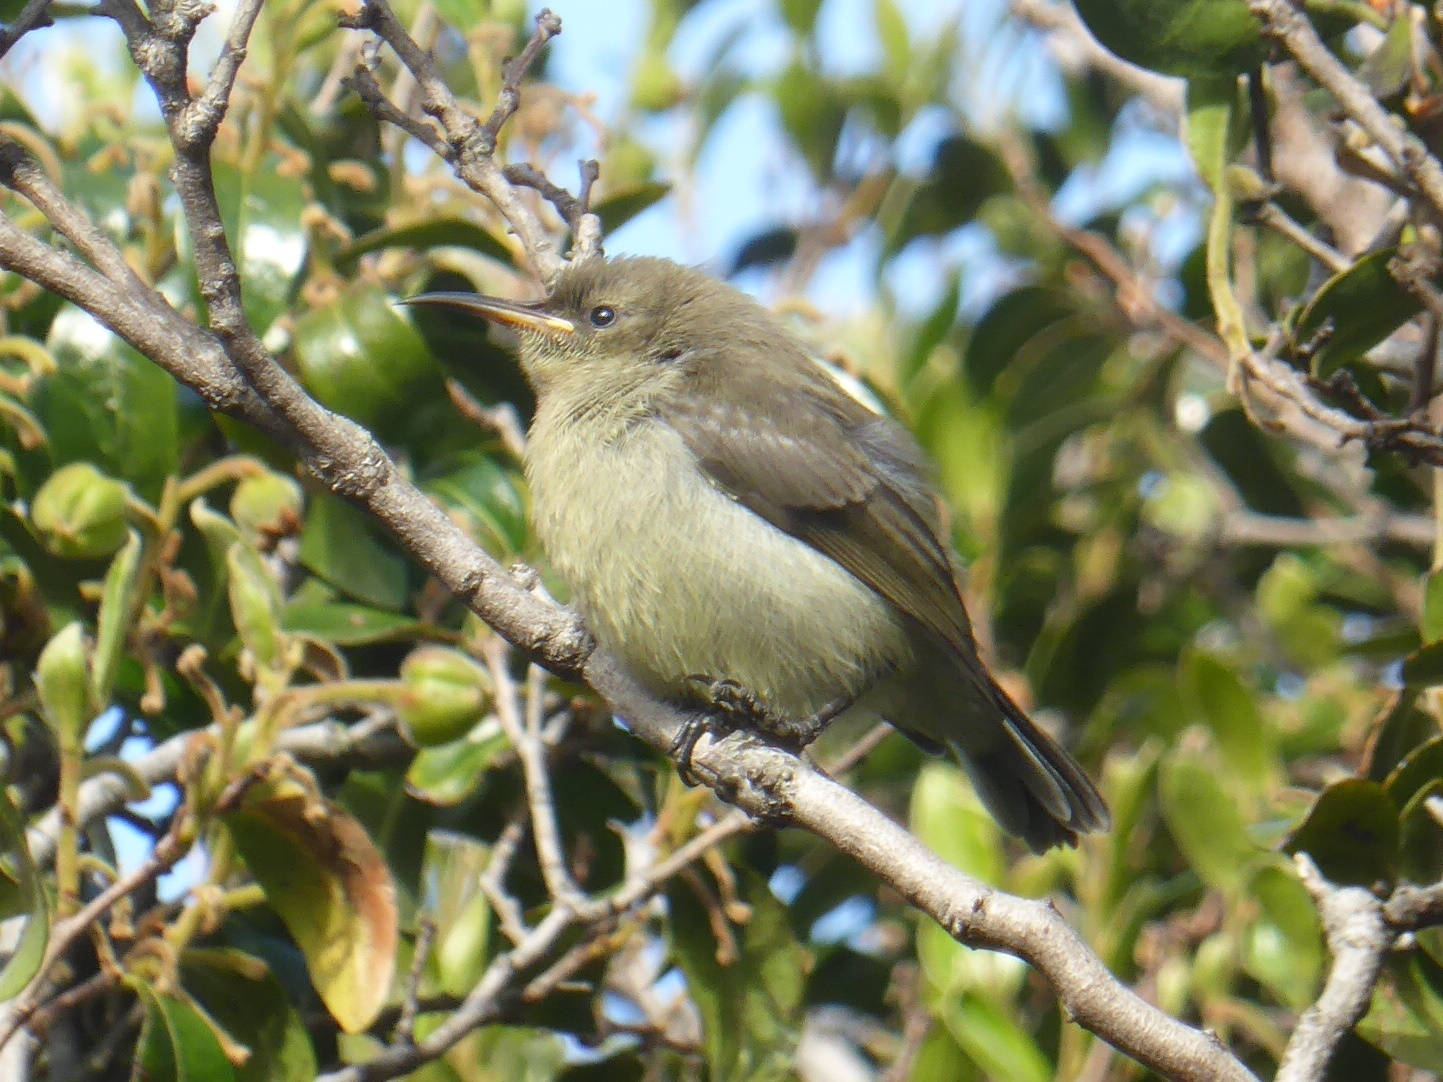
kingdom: Animalia
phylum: Chordata
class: Aves
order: Passeriformes
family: Nectariniidae
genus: Cinnyris
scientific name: Cinnyris chalybeus
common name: Southern double-collared sunbird
